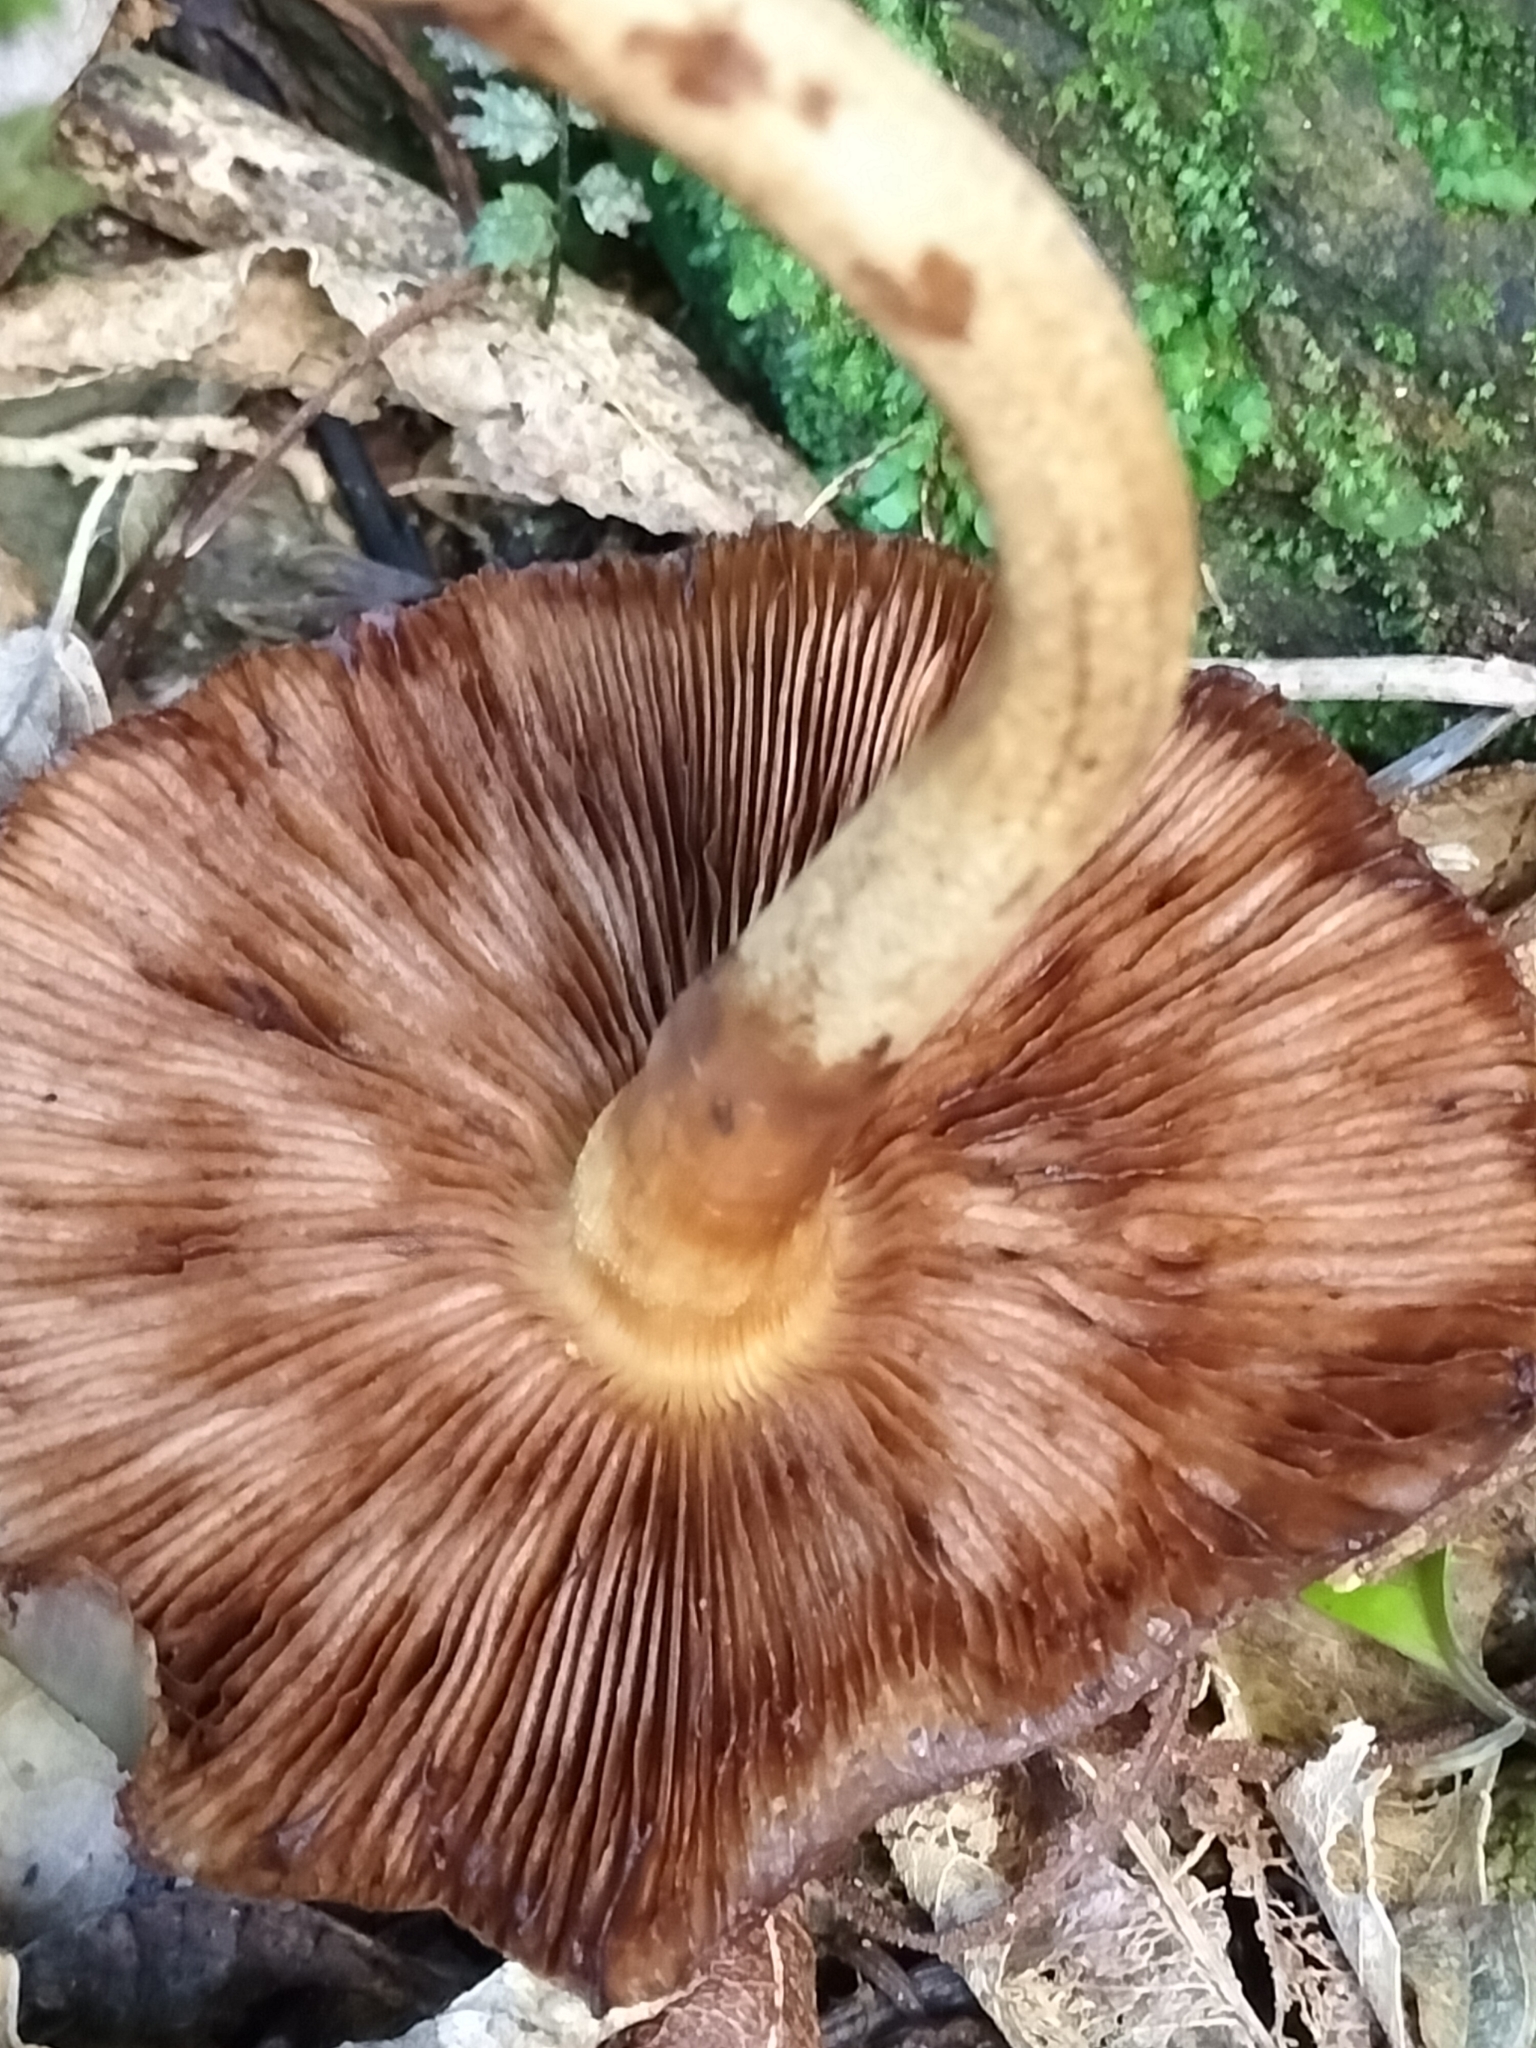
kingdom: Fungi
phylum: Basidiomycota
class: Agaricomycetes
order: Agaricales
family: Tubariaceae
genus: Cyclocybe
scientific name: Cyclocybe parasitica
